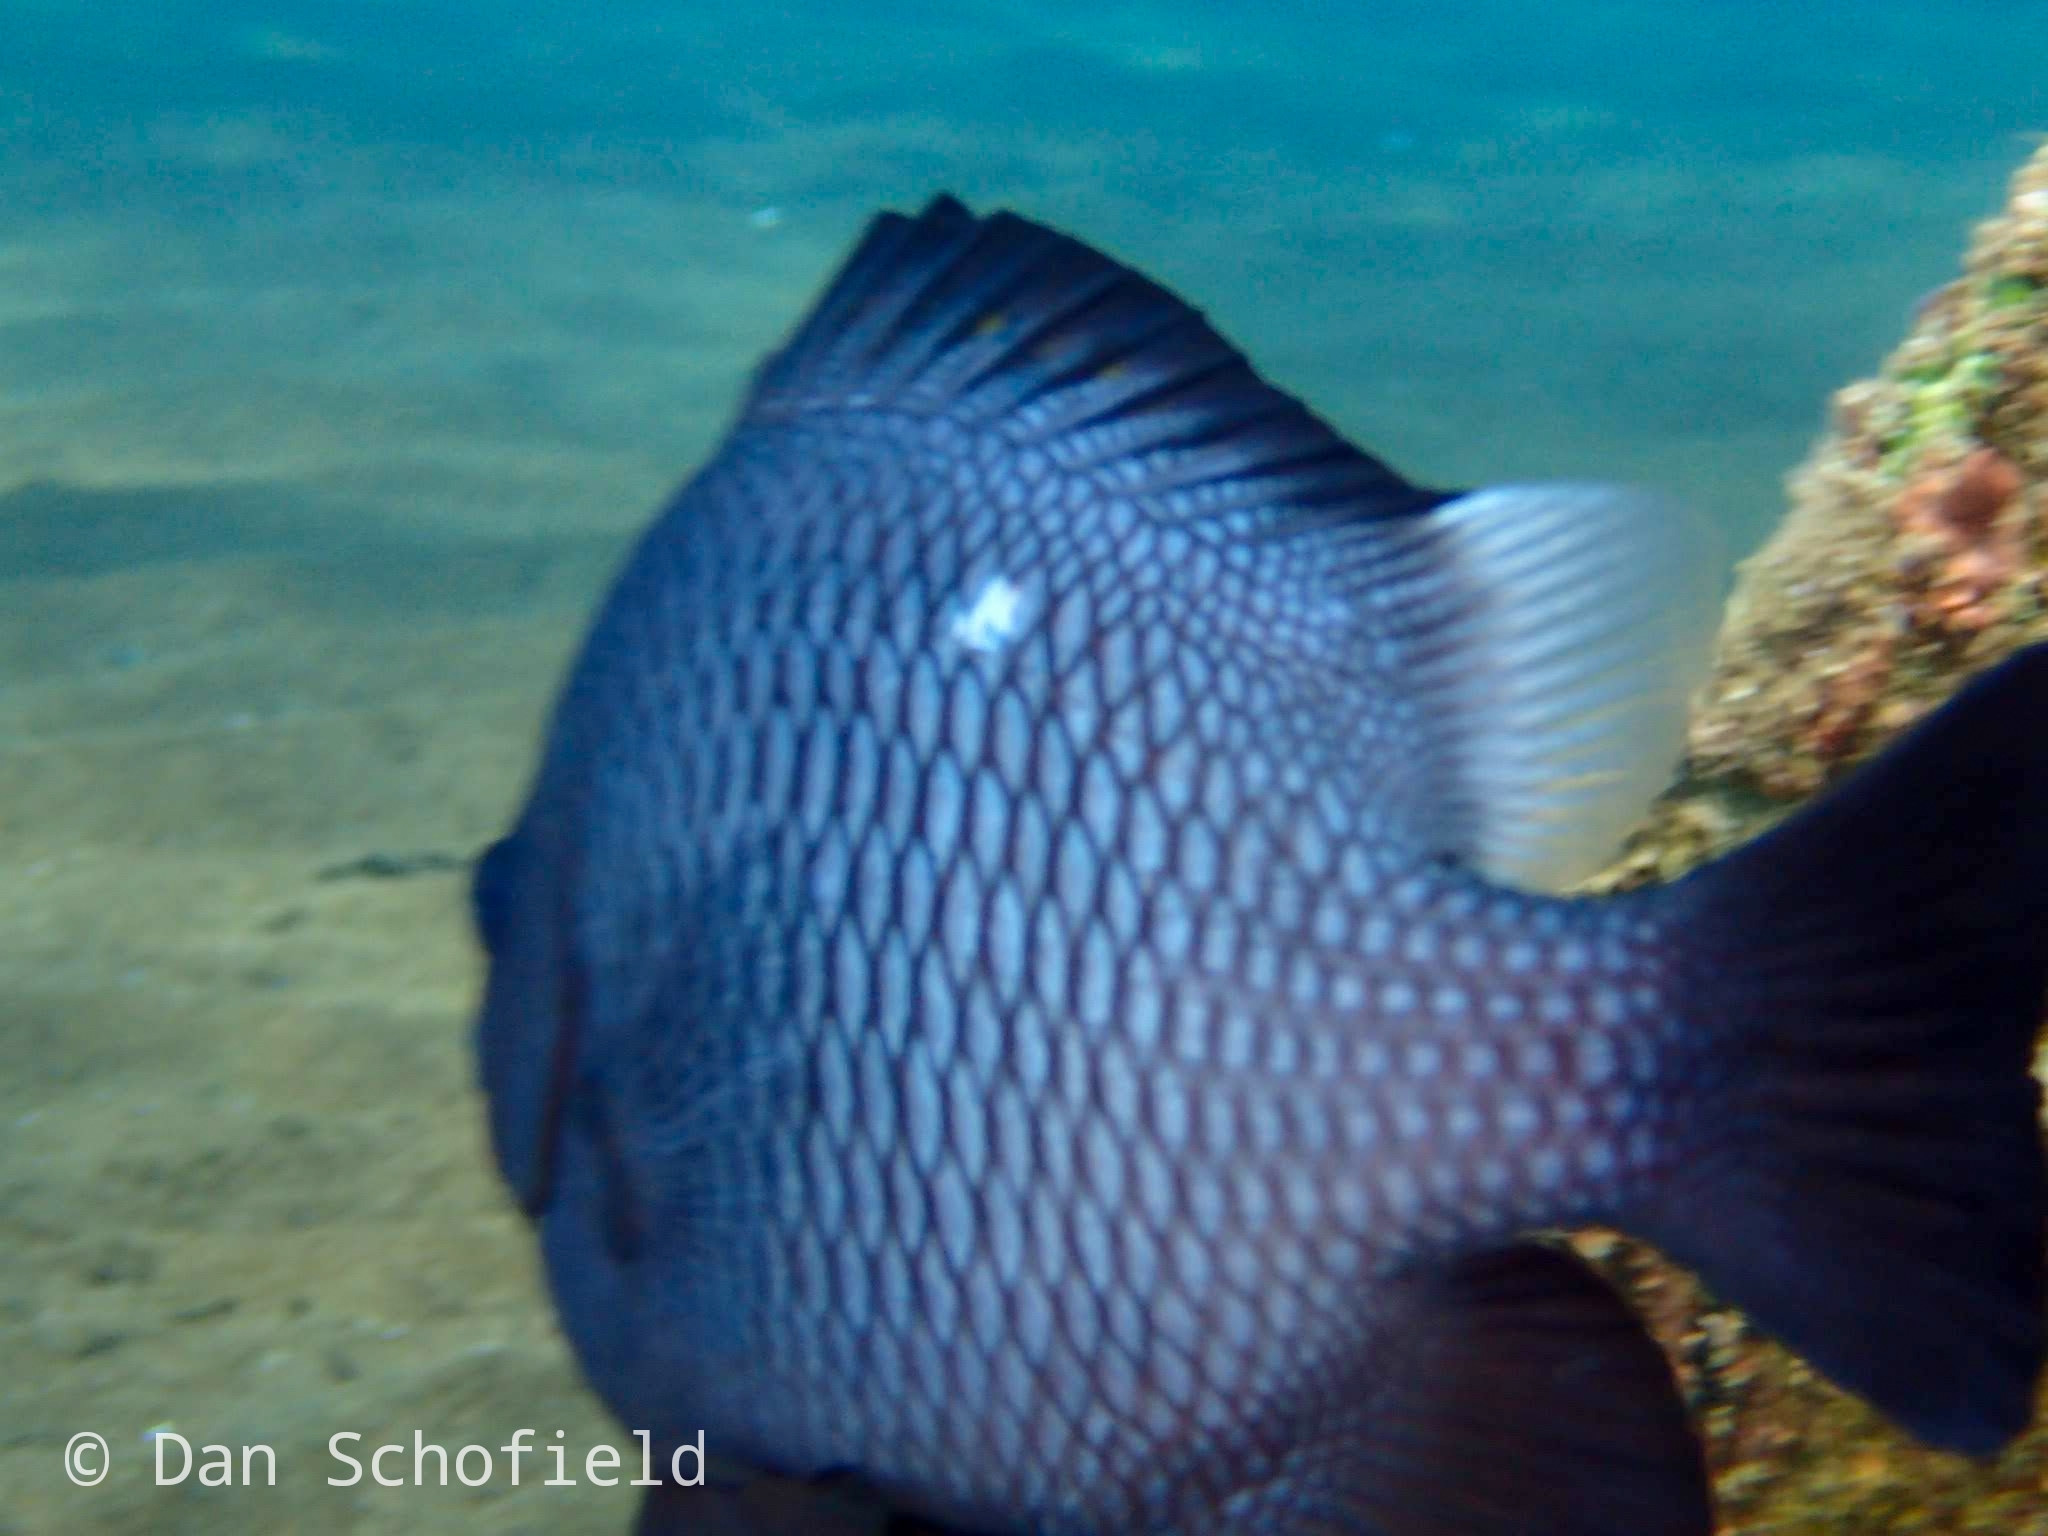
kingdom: Animalia
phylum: Chordata
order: Perciformes
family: Pomacentridae
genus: Dascyllus
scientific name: Dascyllus trimaculatus
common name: Threespot dascyllus
